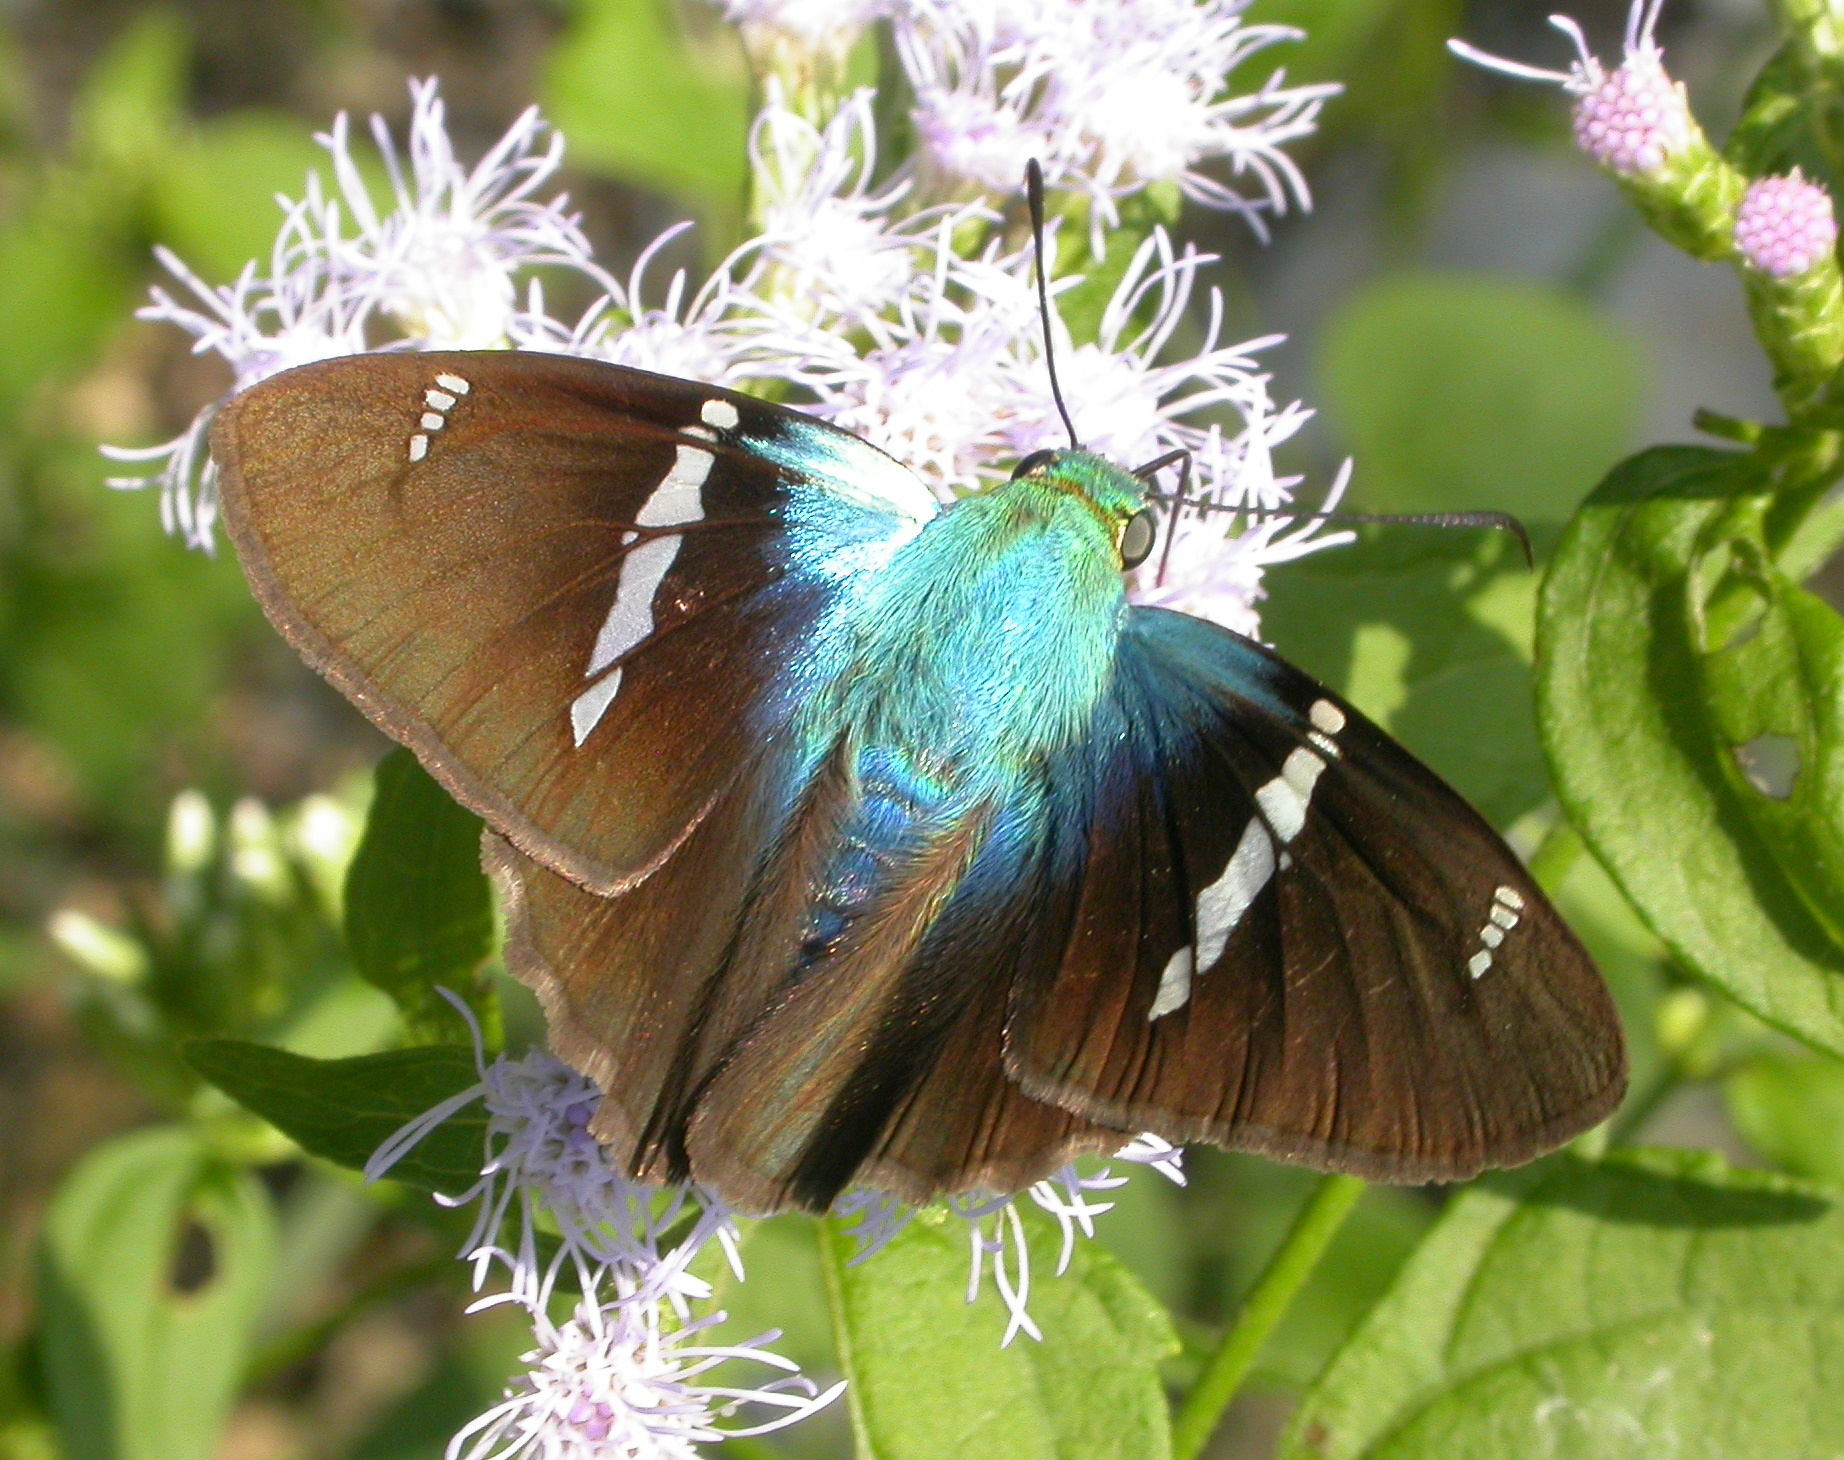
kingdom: Animalia
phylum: Arthropoda
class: Insecta
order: Lepidoptera
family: Hesperiidae
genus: Astraptes
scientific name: Astraptes fulgerator
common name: Two-barred flasher
